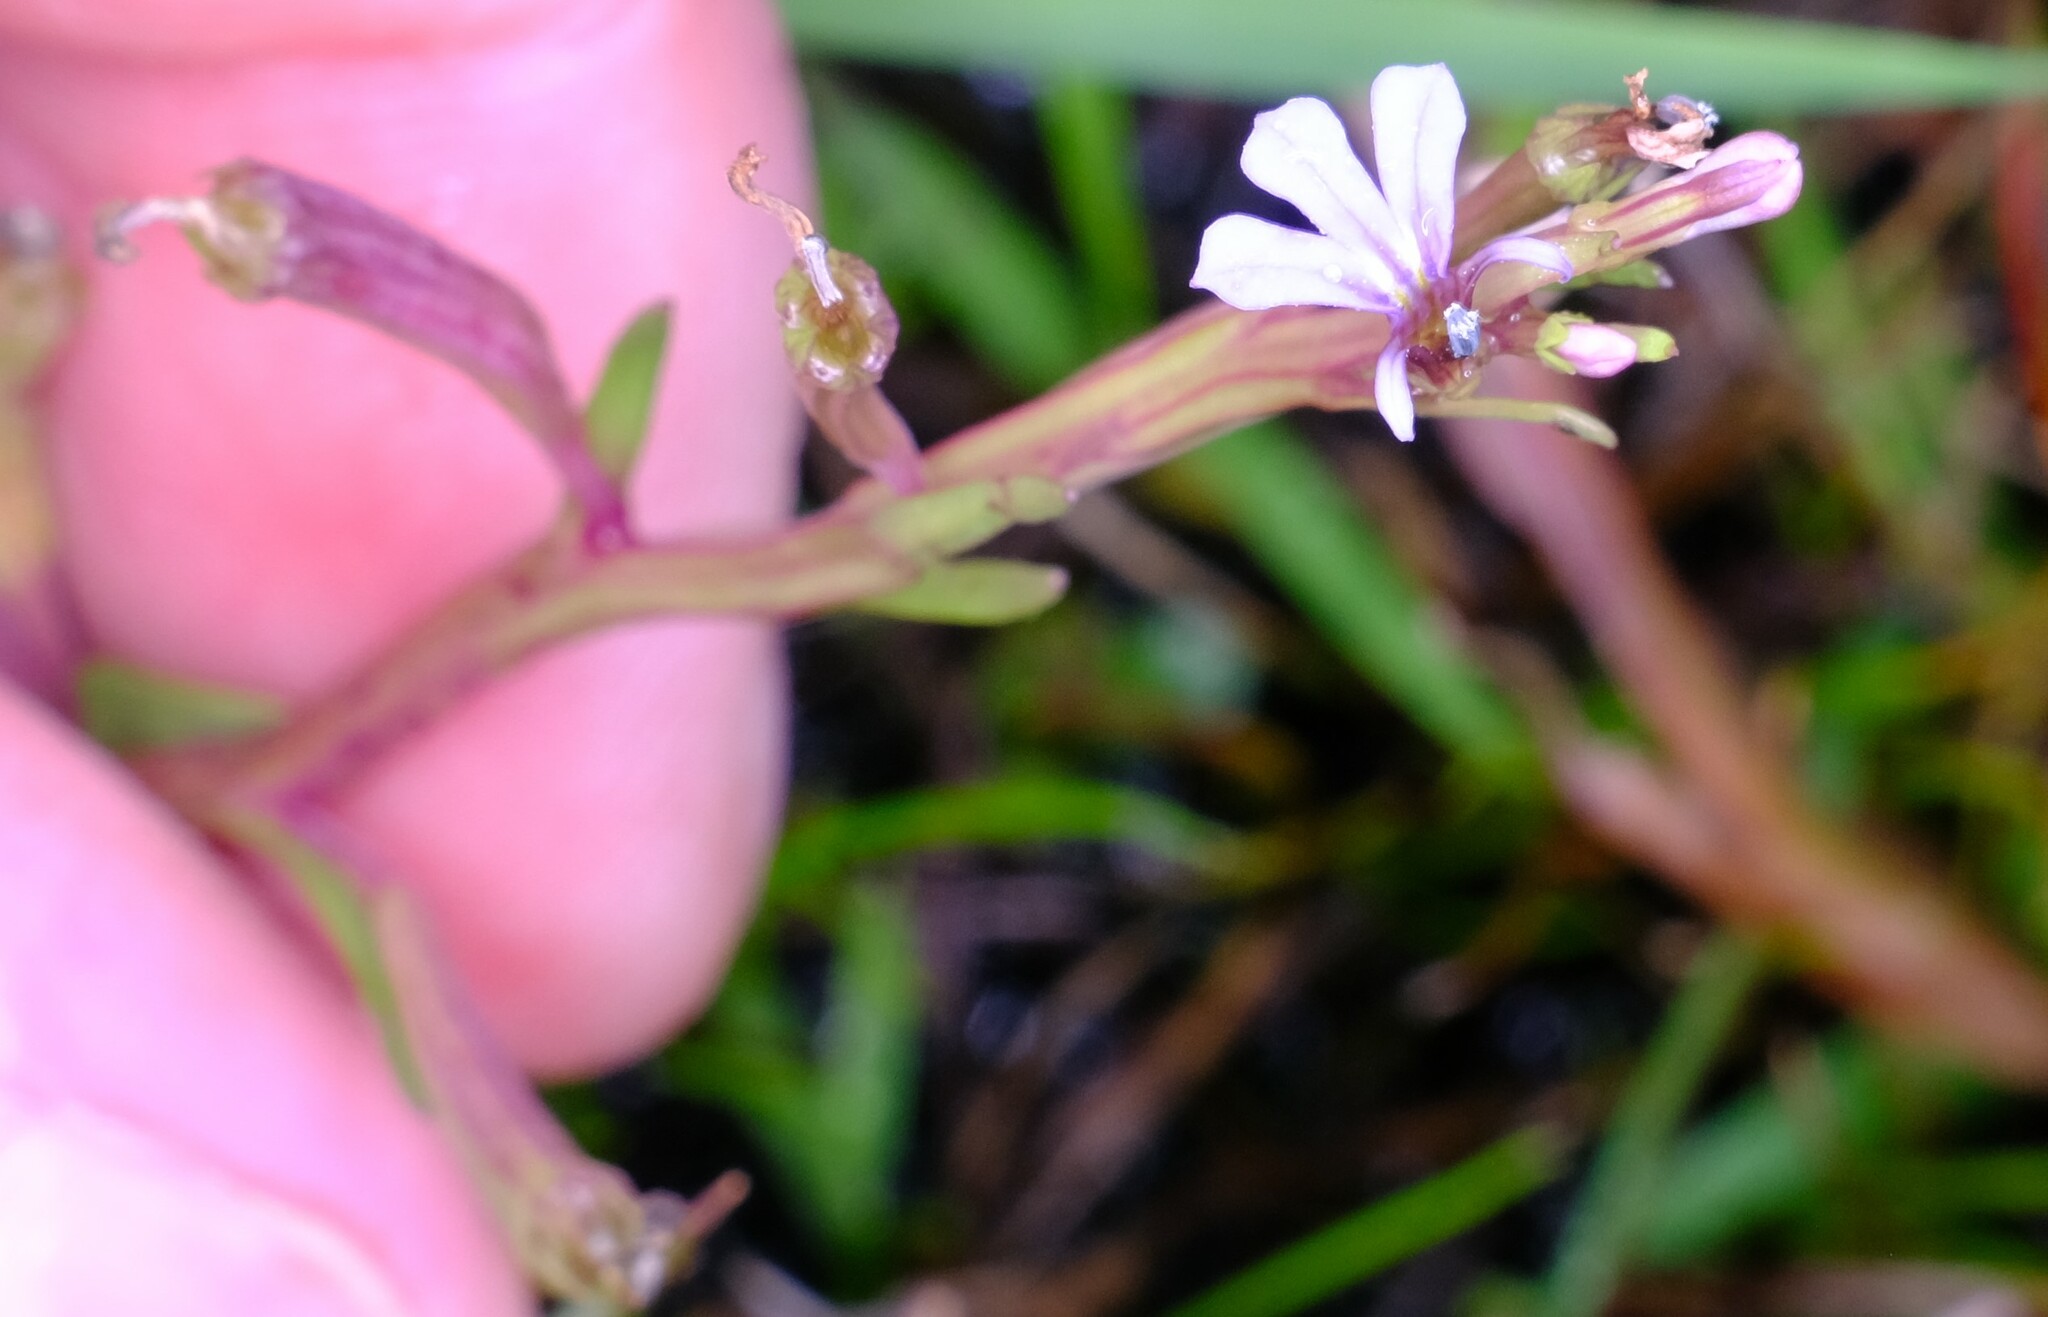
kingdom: Plantae
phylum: Tracheophyta
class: Magnoliopsida
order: Asterales
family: Campanulaceae
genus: Lobelia
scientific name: Lobelia anceps
